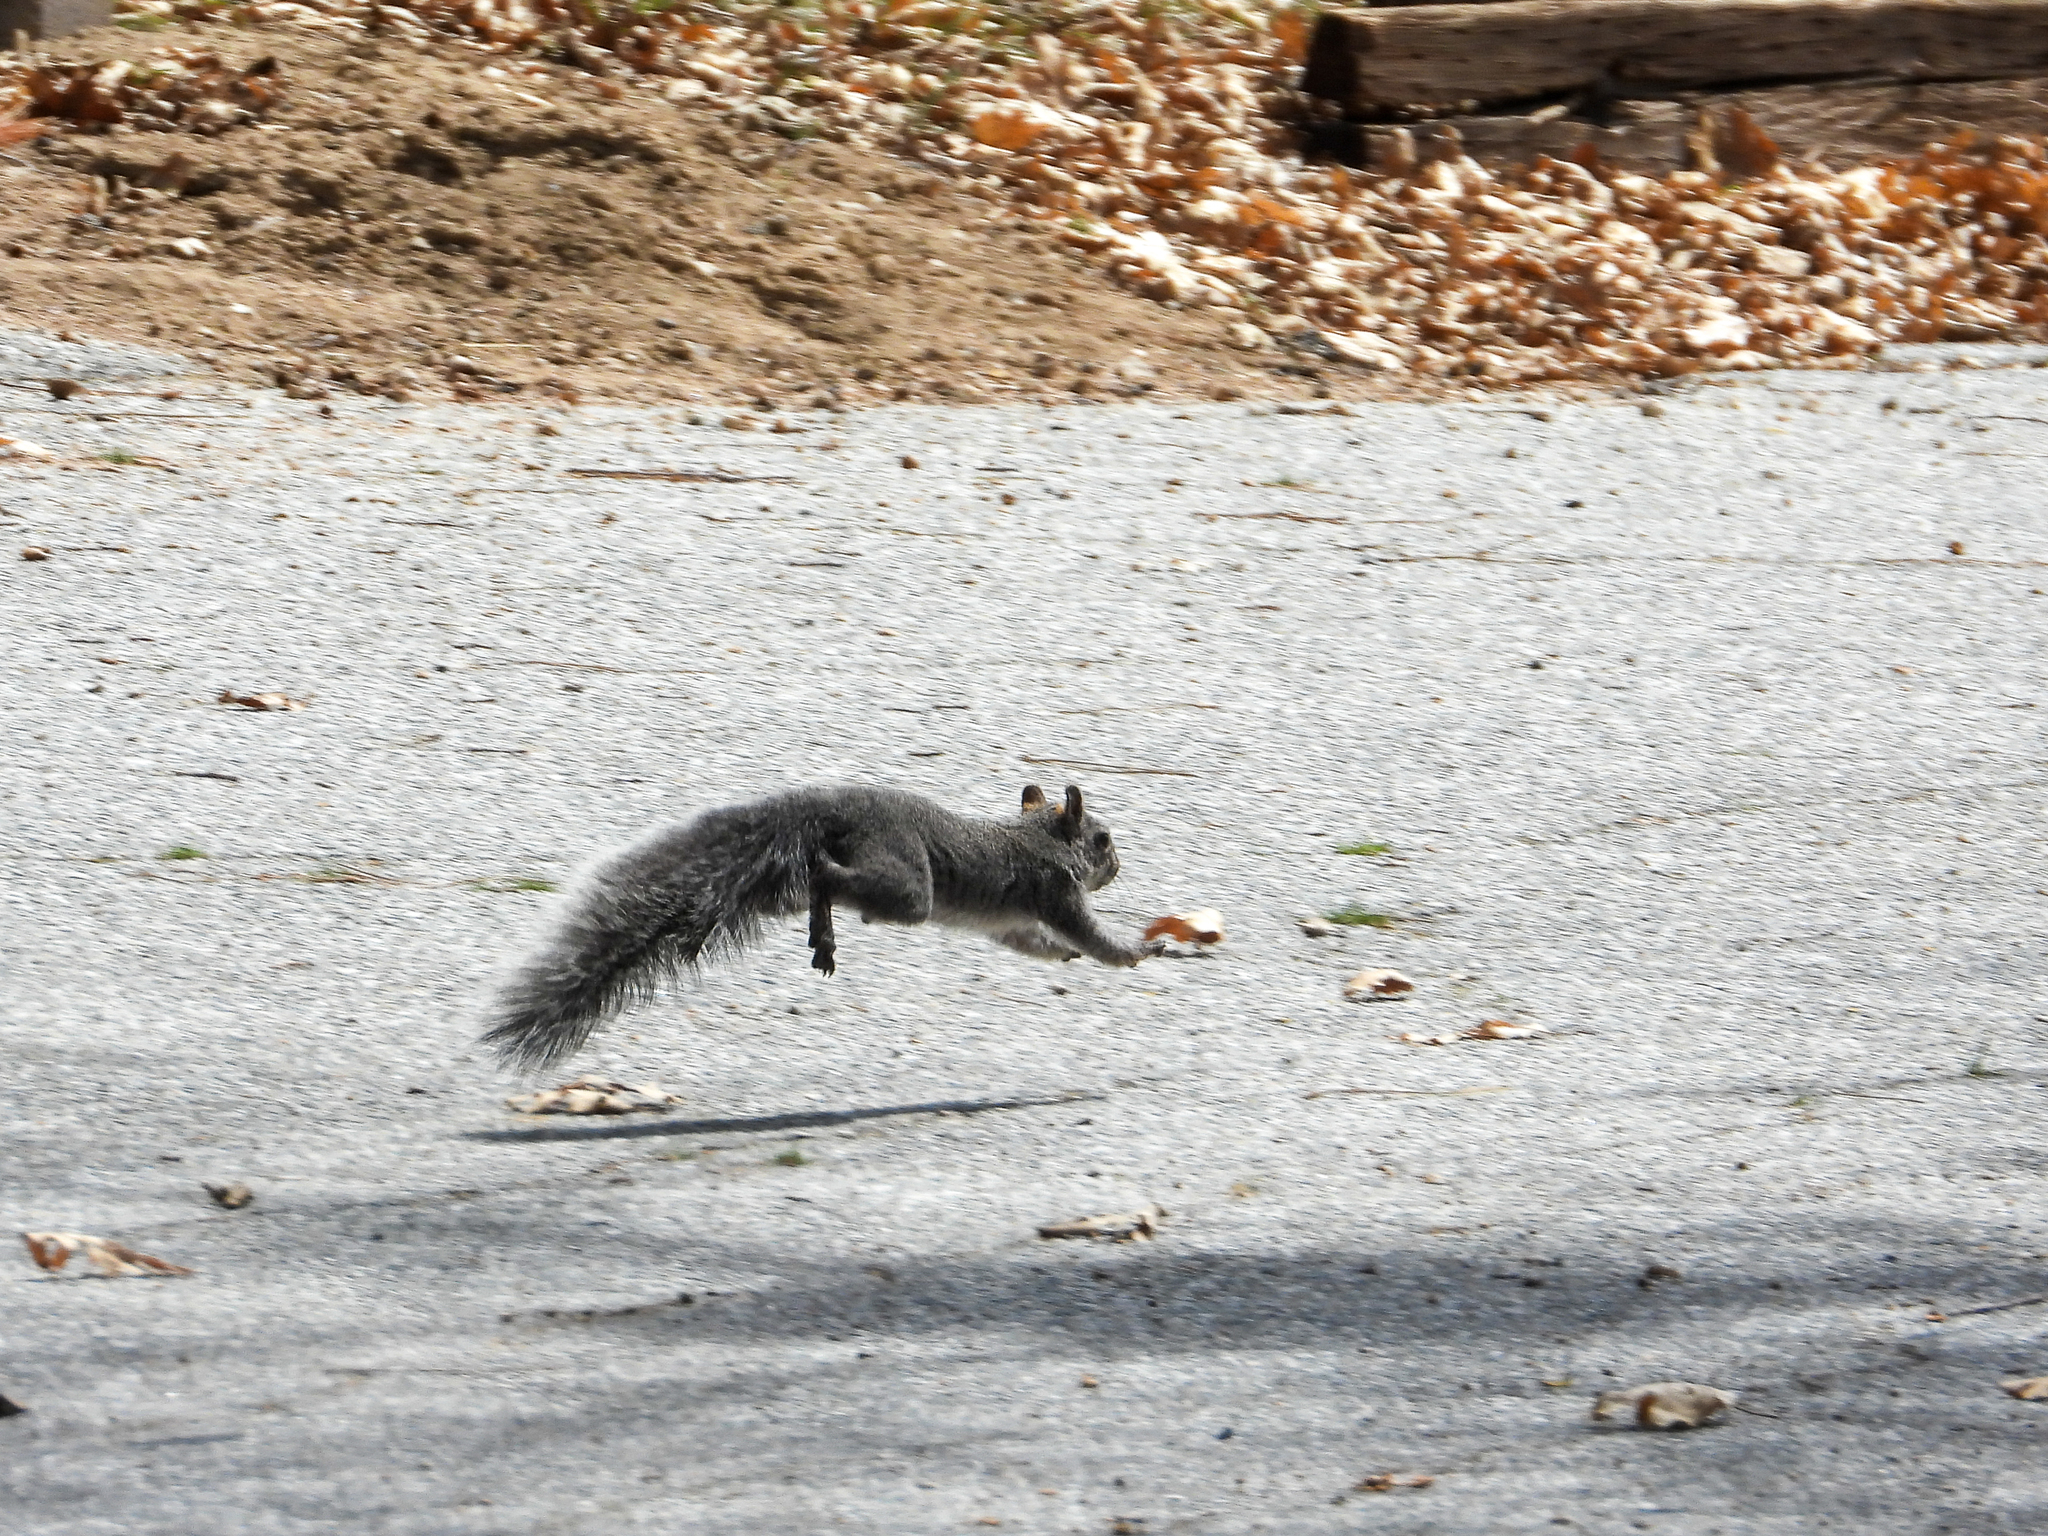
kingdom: Animalia
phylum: Chordata
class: Mammalia
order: Rodentia
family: Sciuridae
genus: Sciurus
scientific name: Sciurus griseus
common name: Western gray squirrel
